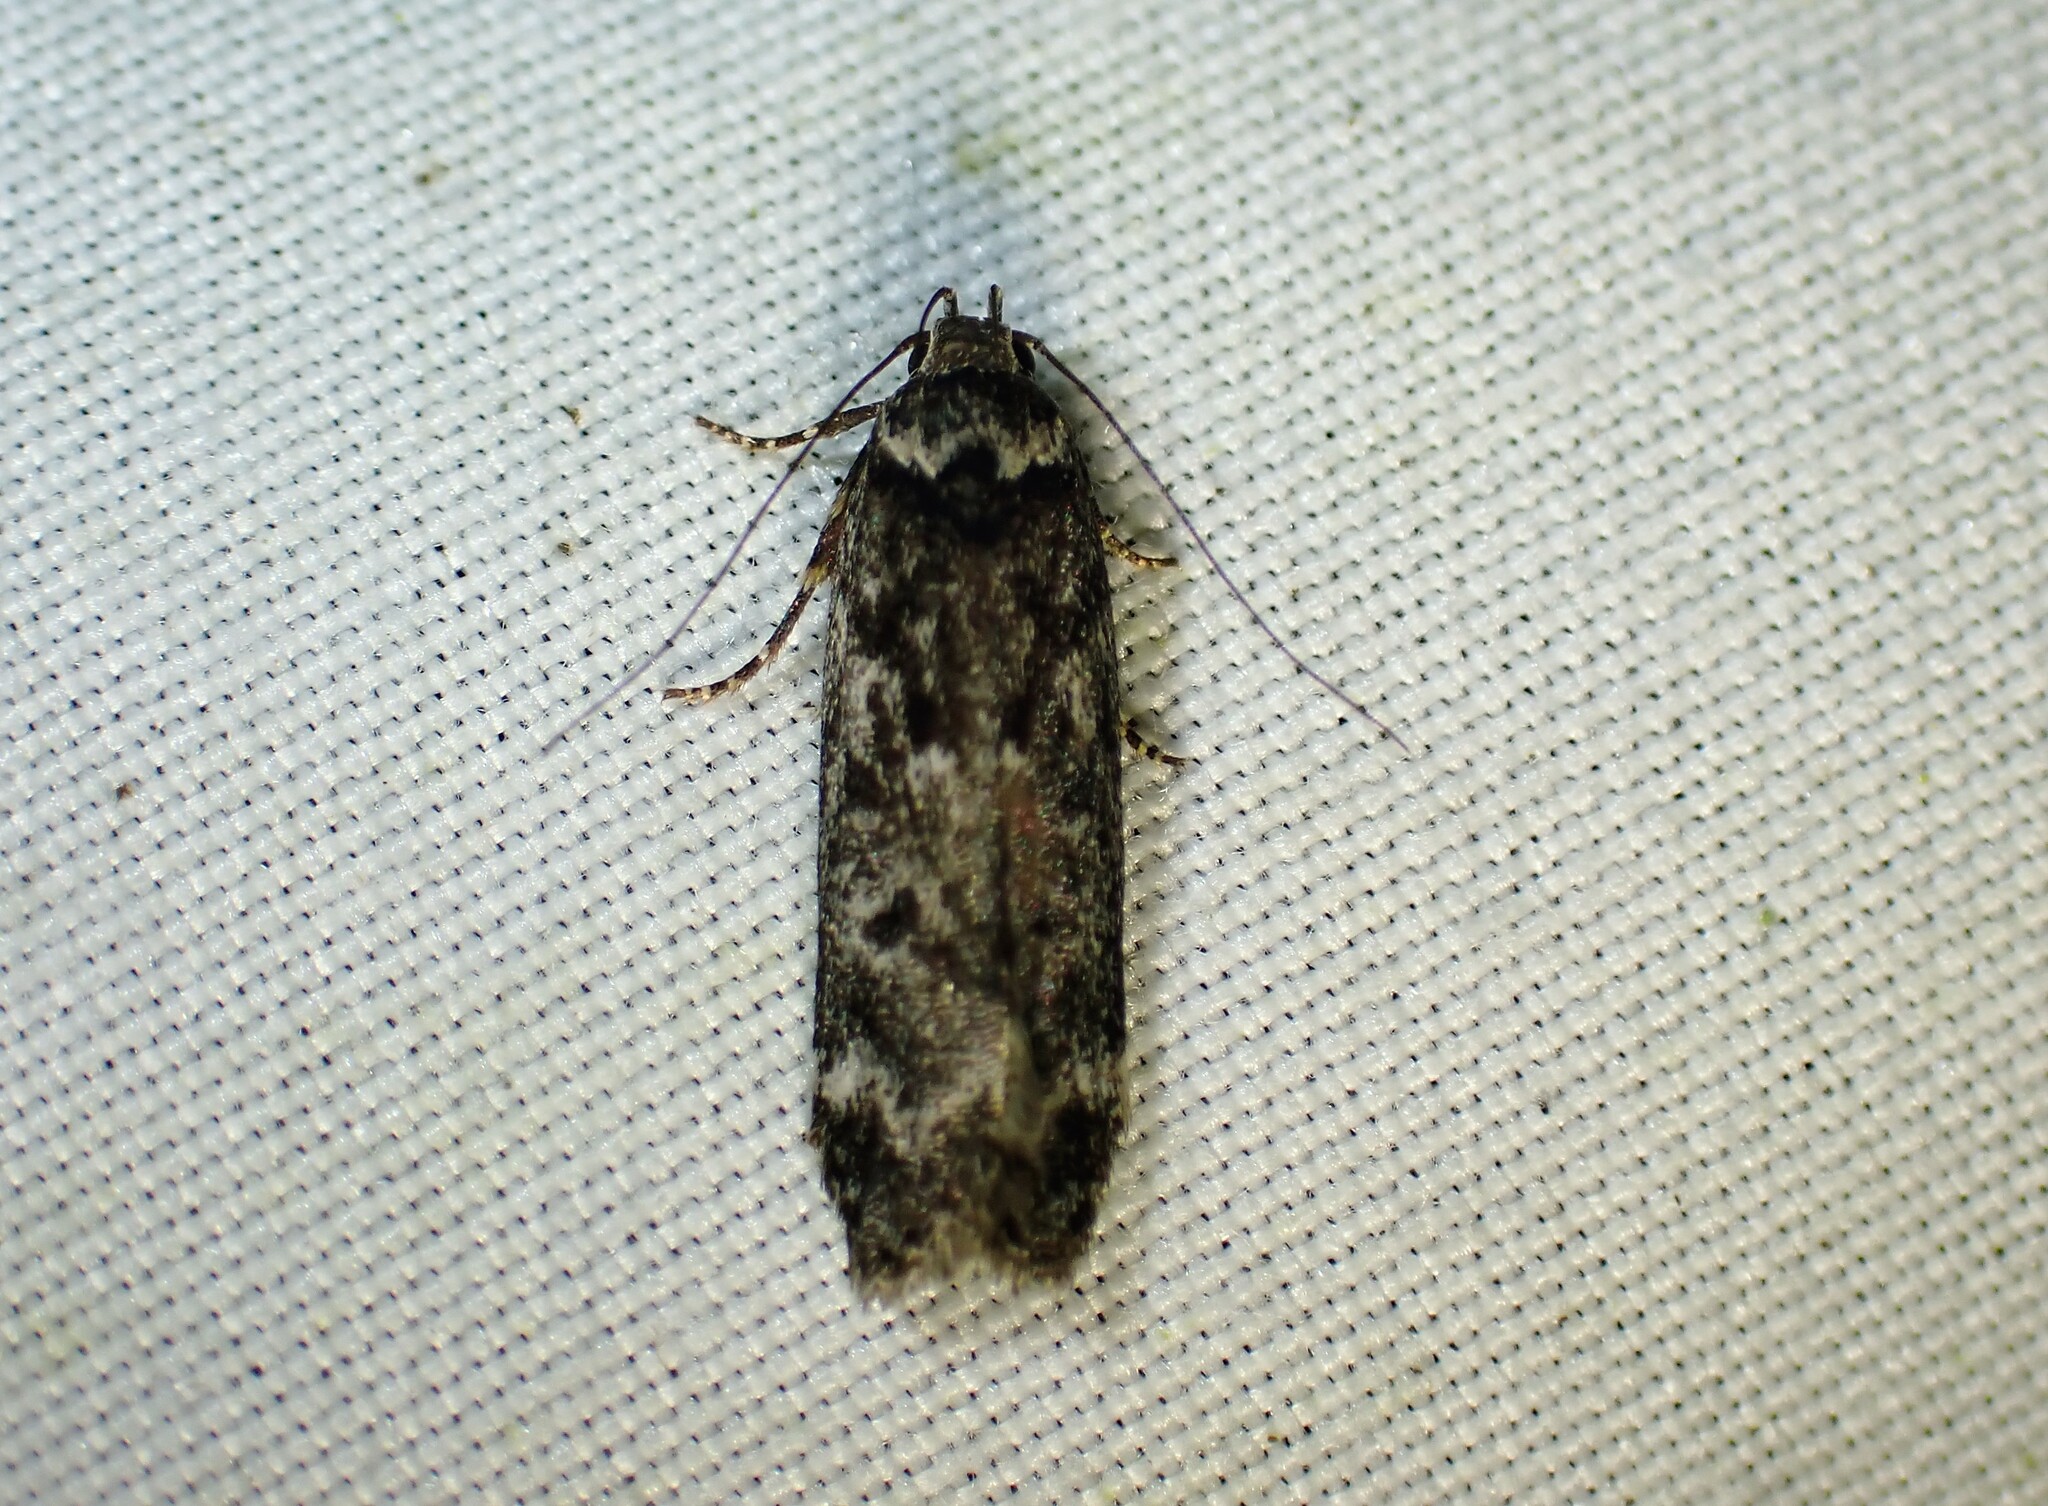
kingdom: Animalia
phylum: Arthropoda
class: Insecta
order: Lepidoptera
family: Gelechiidae
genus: Anacampsis
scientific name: Anacampsis niveopulvella
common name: Pale-headed aspen leafroller moth
